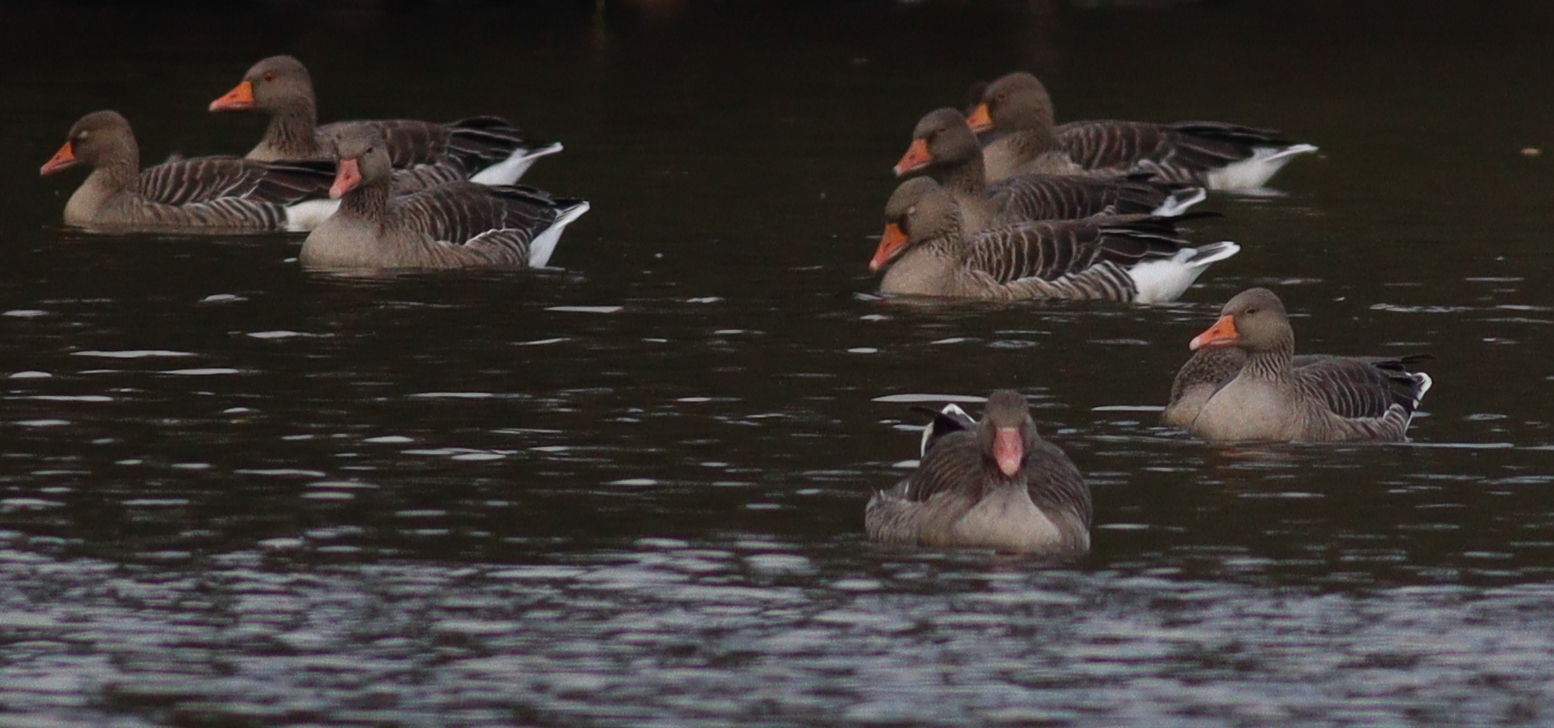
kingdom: Animalia
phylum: Chordata
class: Aves
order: Anseriformes
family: Anatidae
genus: Anser
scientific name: Anser anser
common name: Greylag goose
